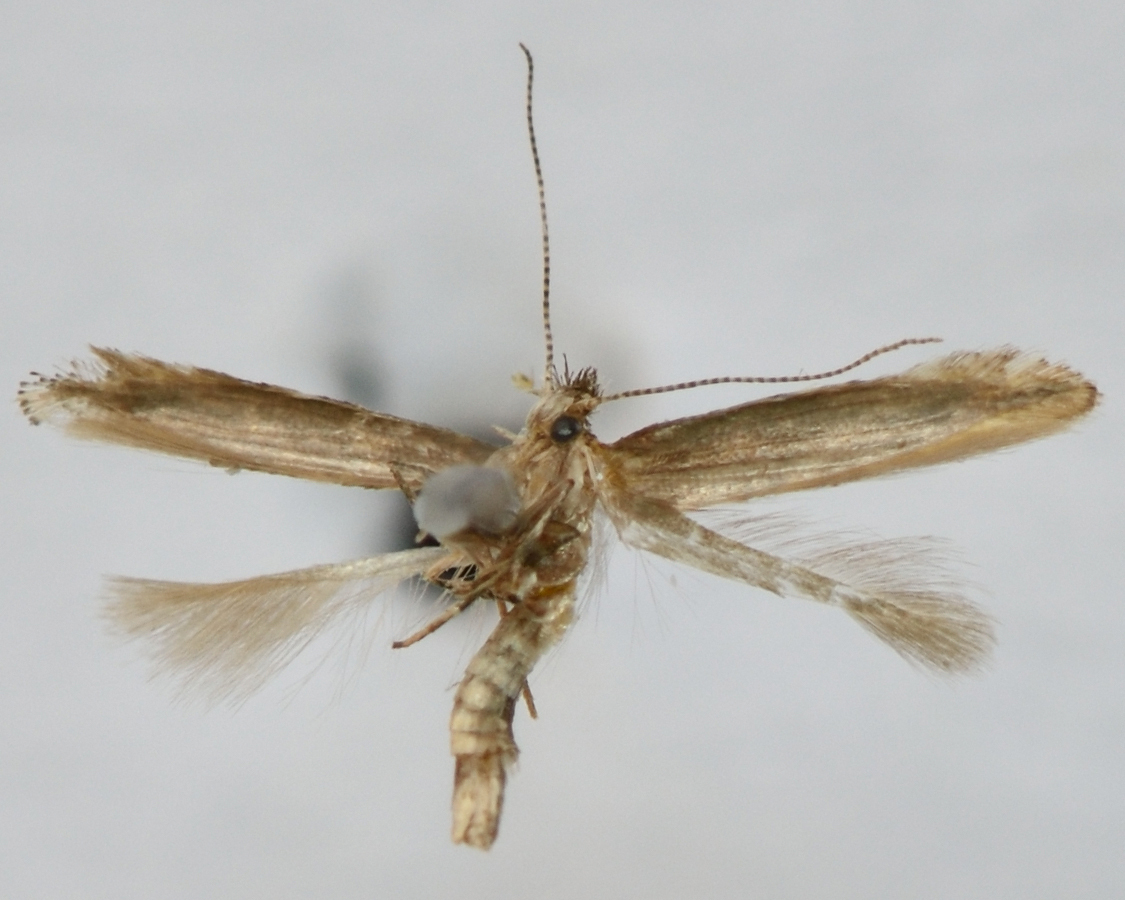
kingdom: Animalia
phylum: Arthropoda
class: Insecta
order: Lepidoptera
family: Gracillariidae
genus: Phyllonorycter
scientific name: Phyllonorycter issikii
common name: Linden midget
